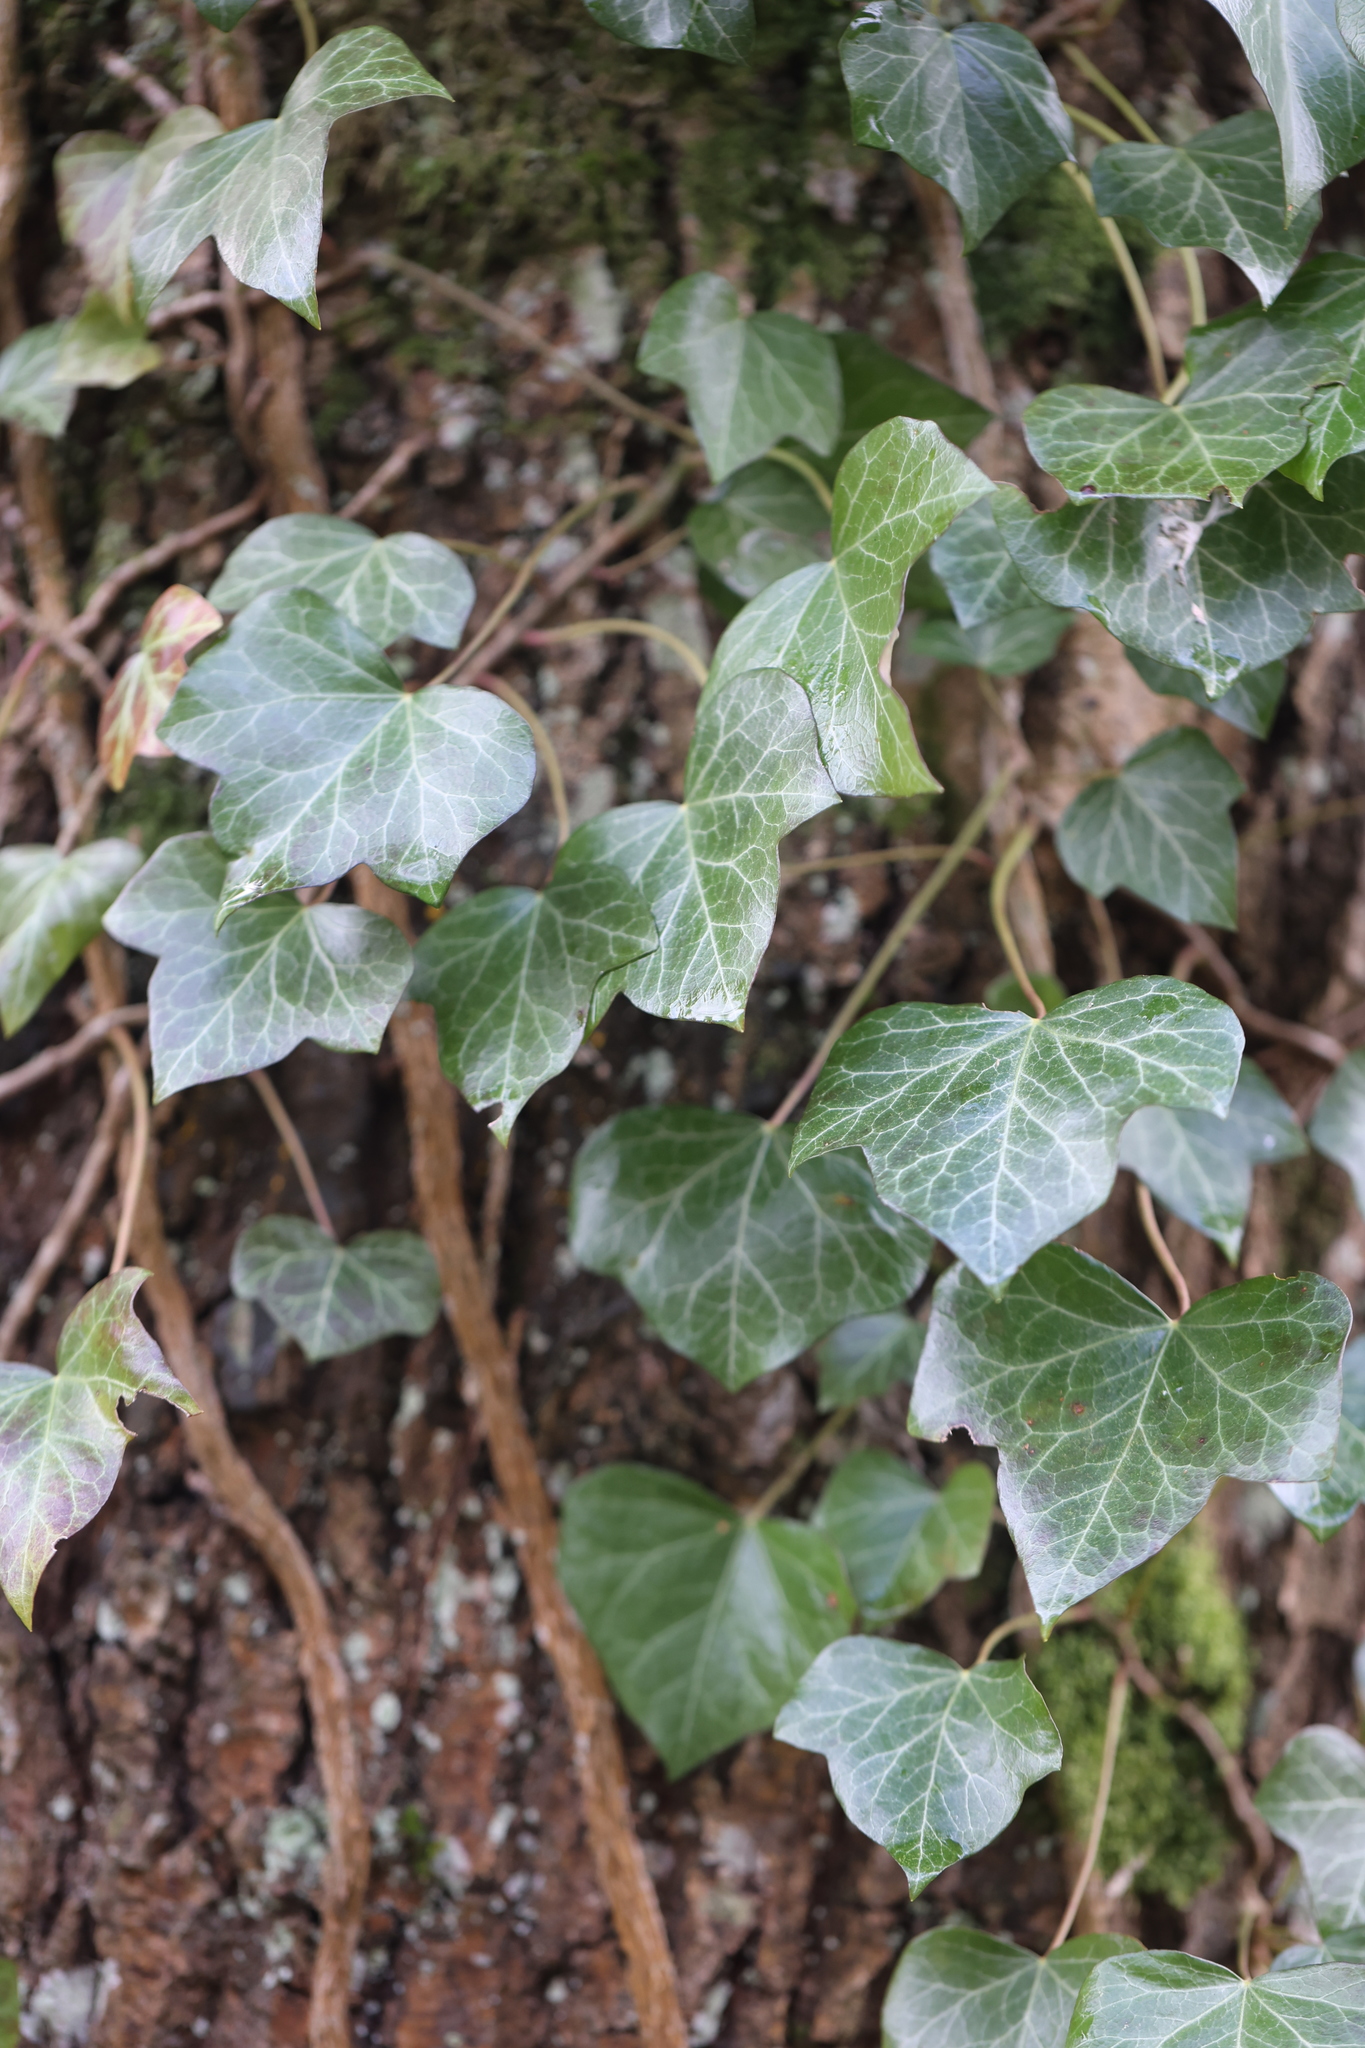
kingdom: Plantae
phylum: Tracheophyta
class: Magnoliopsida
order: Apiales
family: Araliaceae
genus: Hedera
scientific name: Hedera helix
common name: Ivy
